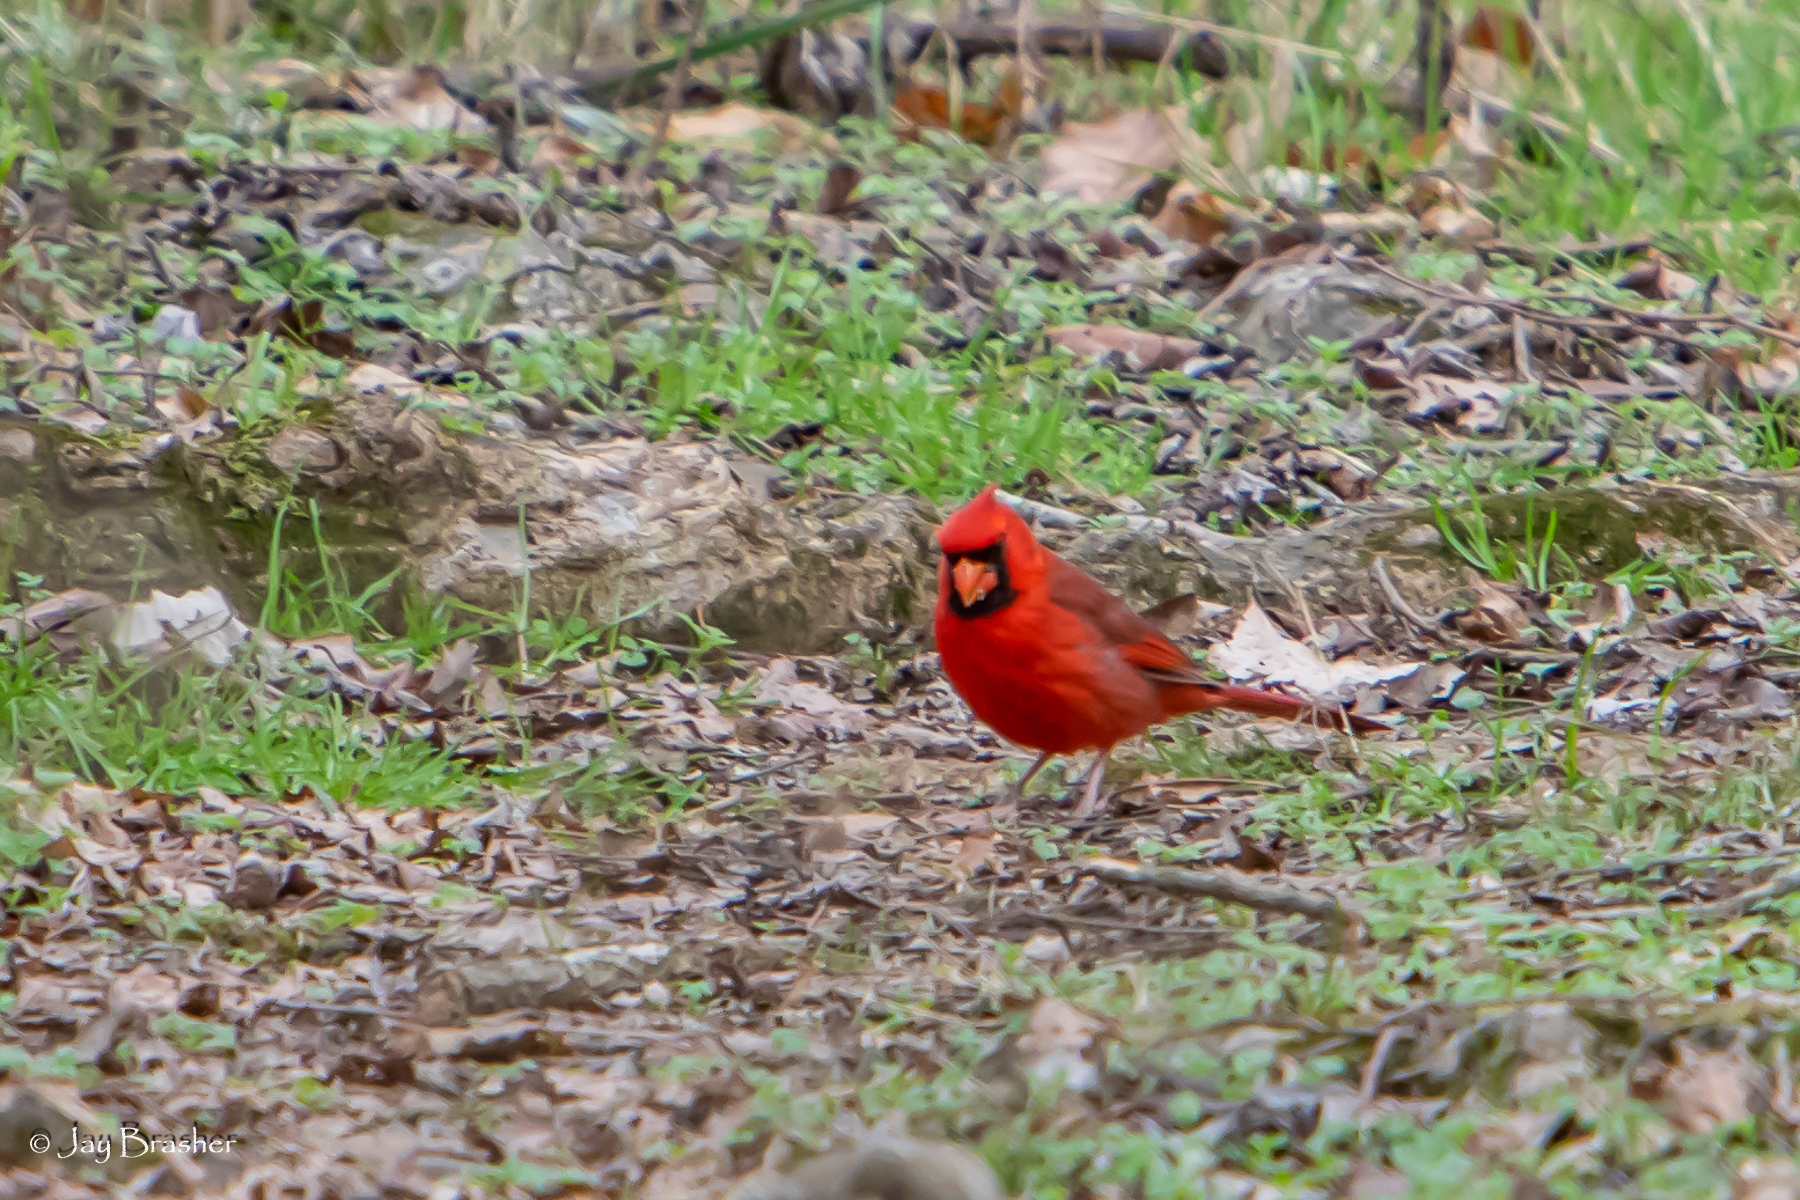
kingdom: Animalia
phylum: Chordata
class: Aves
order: Passeriformes
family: Cardinalidae
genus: Cardinalis
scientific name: Cardinalis cardinalis
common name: Northern cardinal
